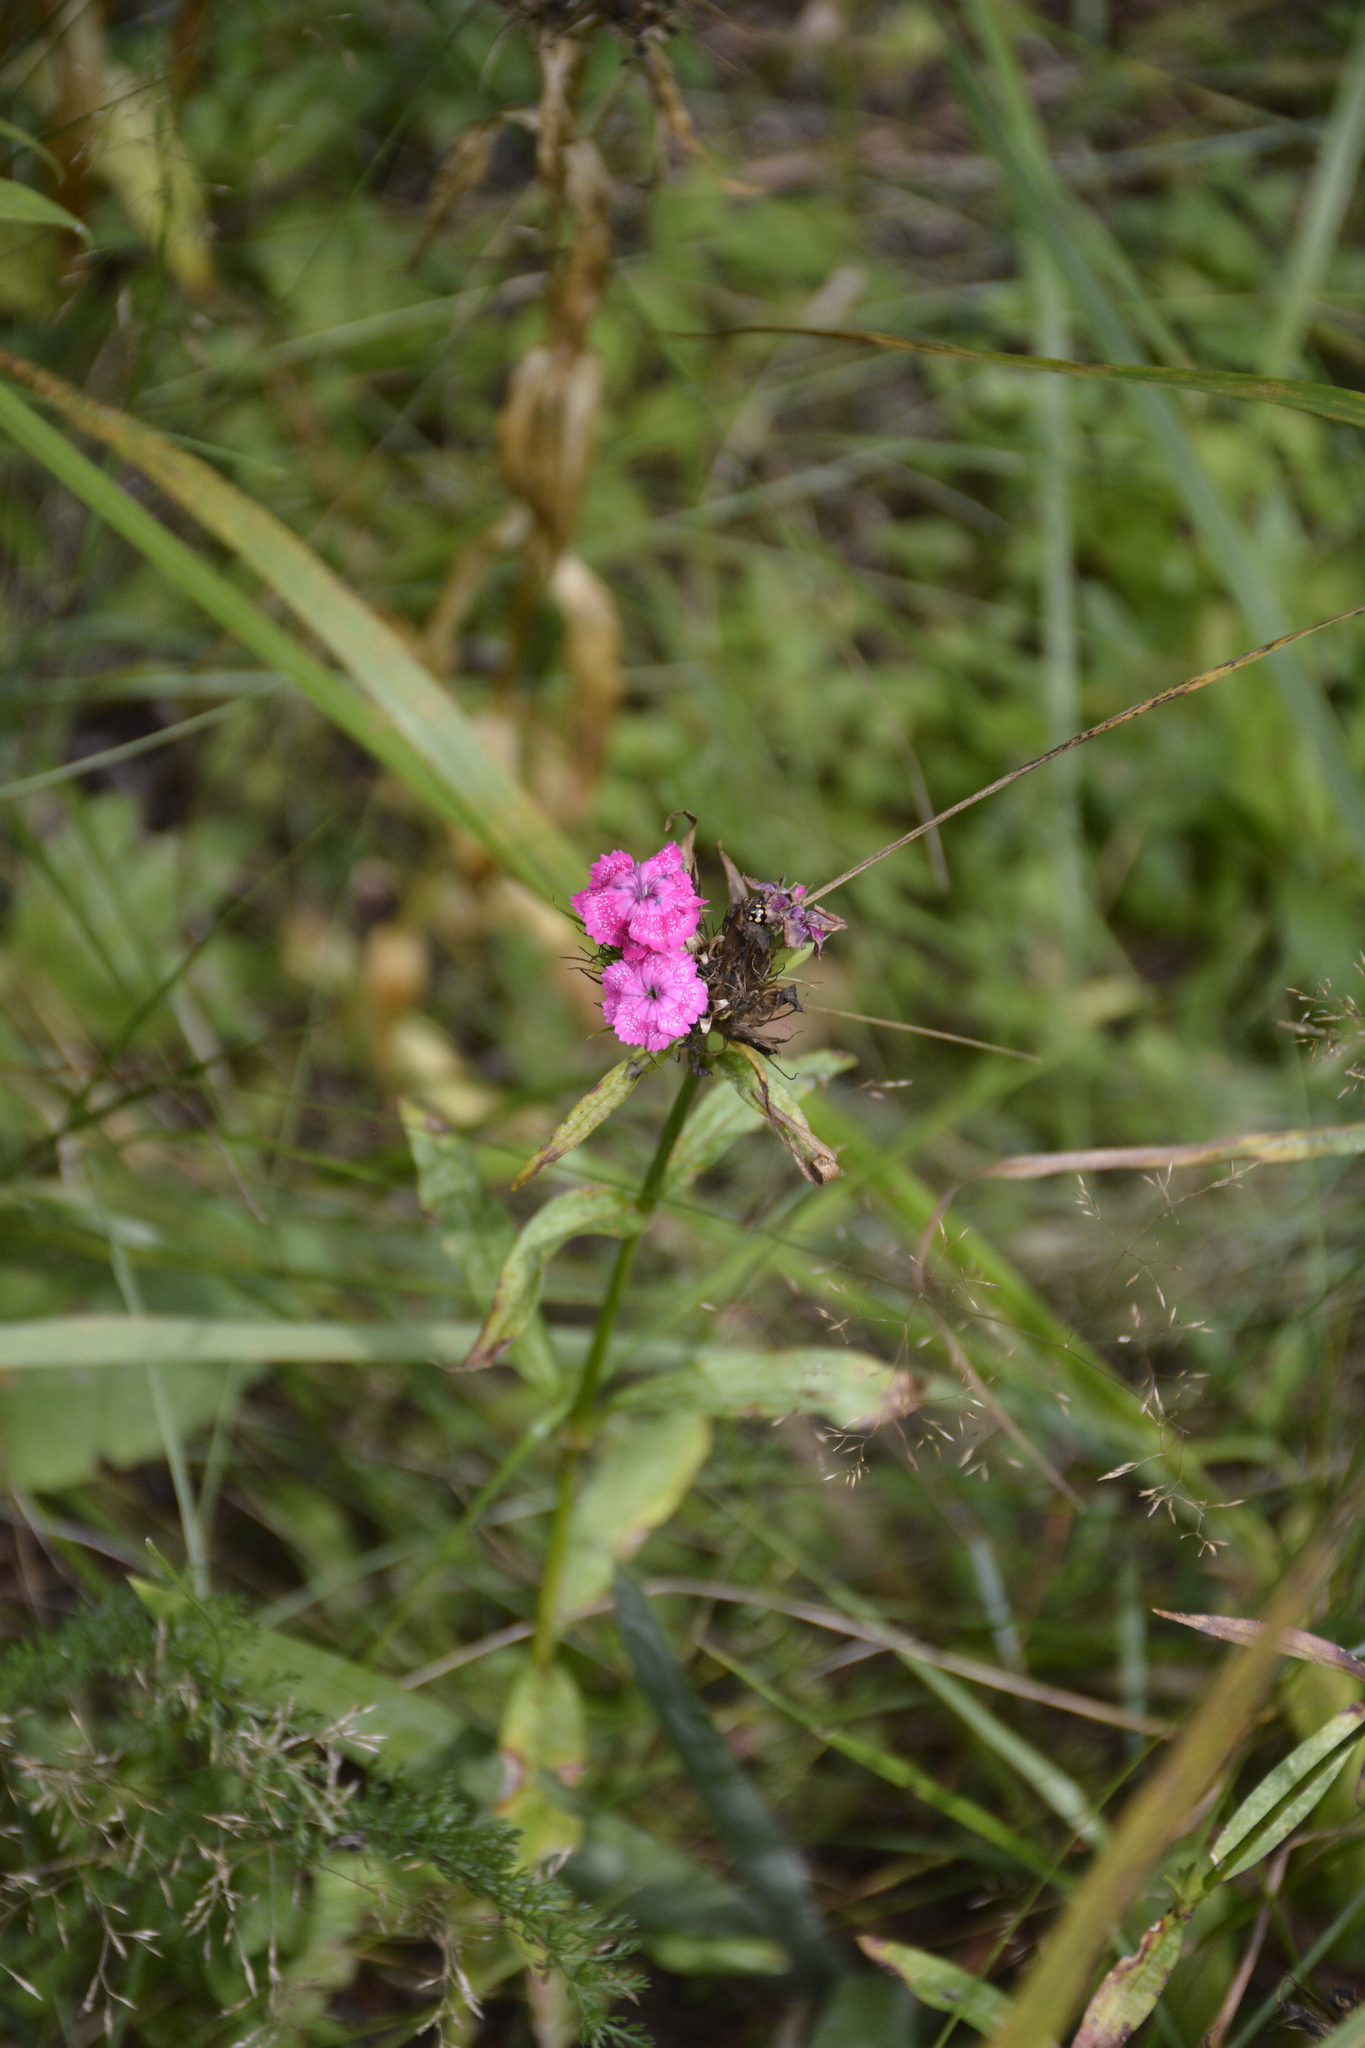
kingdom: Plantae
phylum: Tracheophyta
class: Magnoliopsida
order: Caryophyllales
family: Caryophyllaceae
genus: Dianthus
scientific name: Dianthus barbatus
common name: Sweet-william
